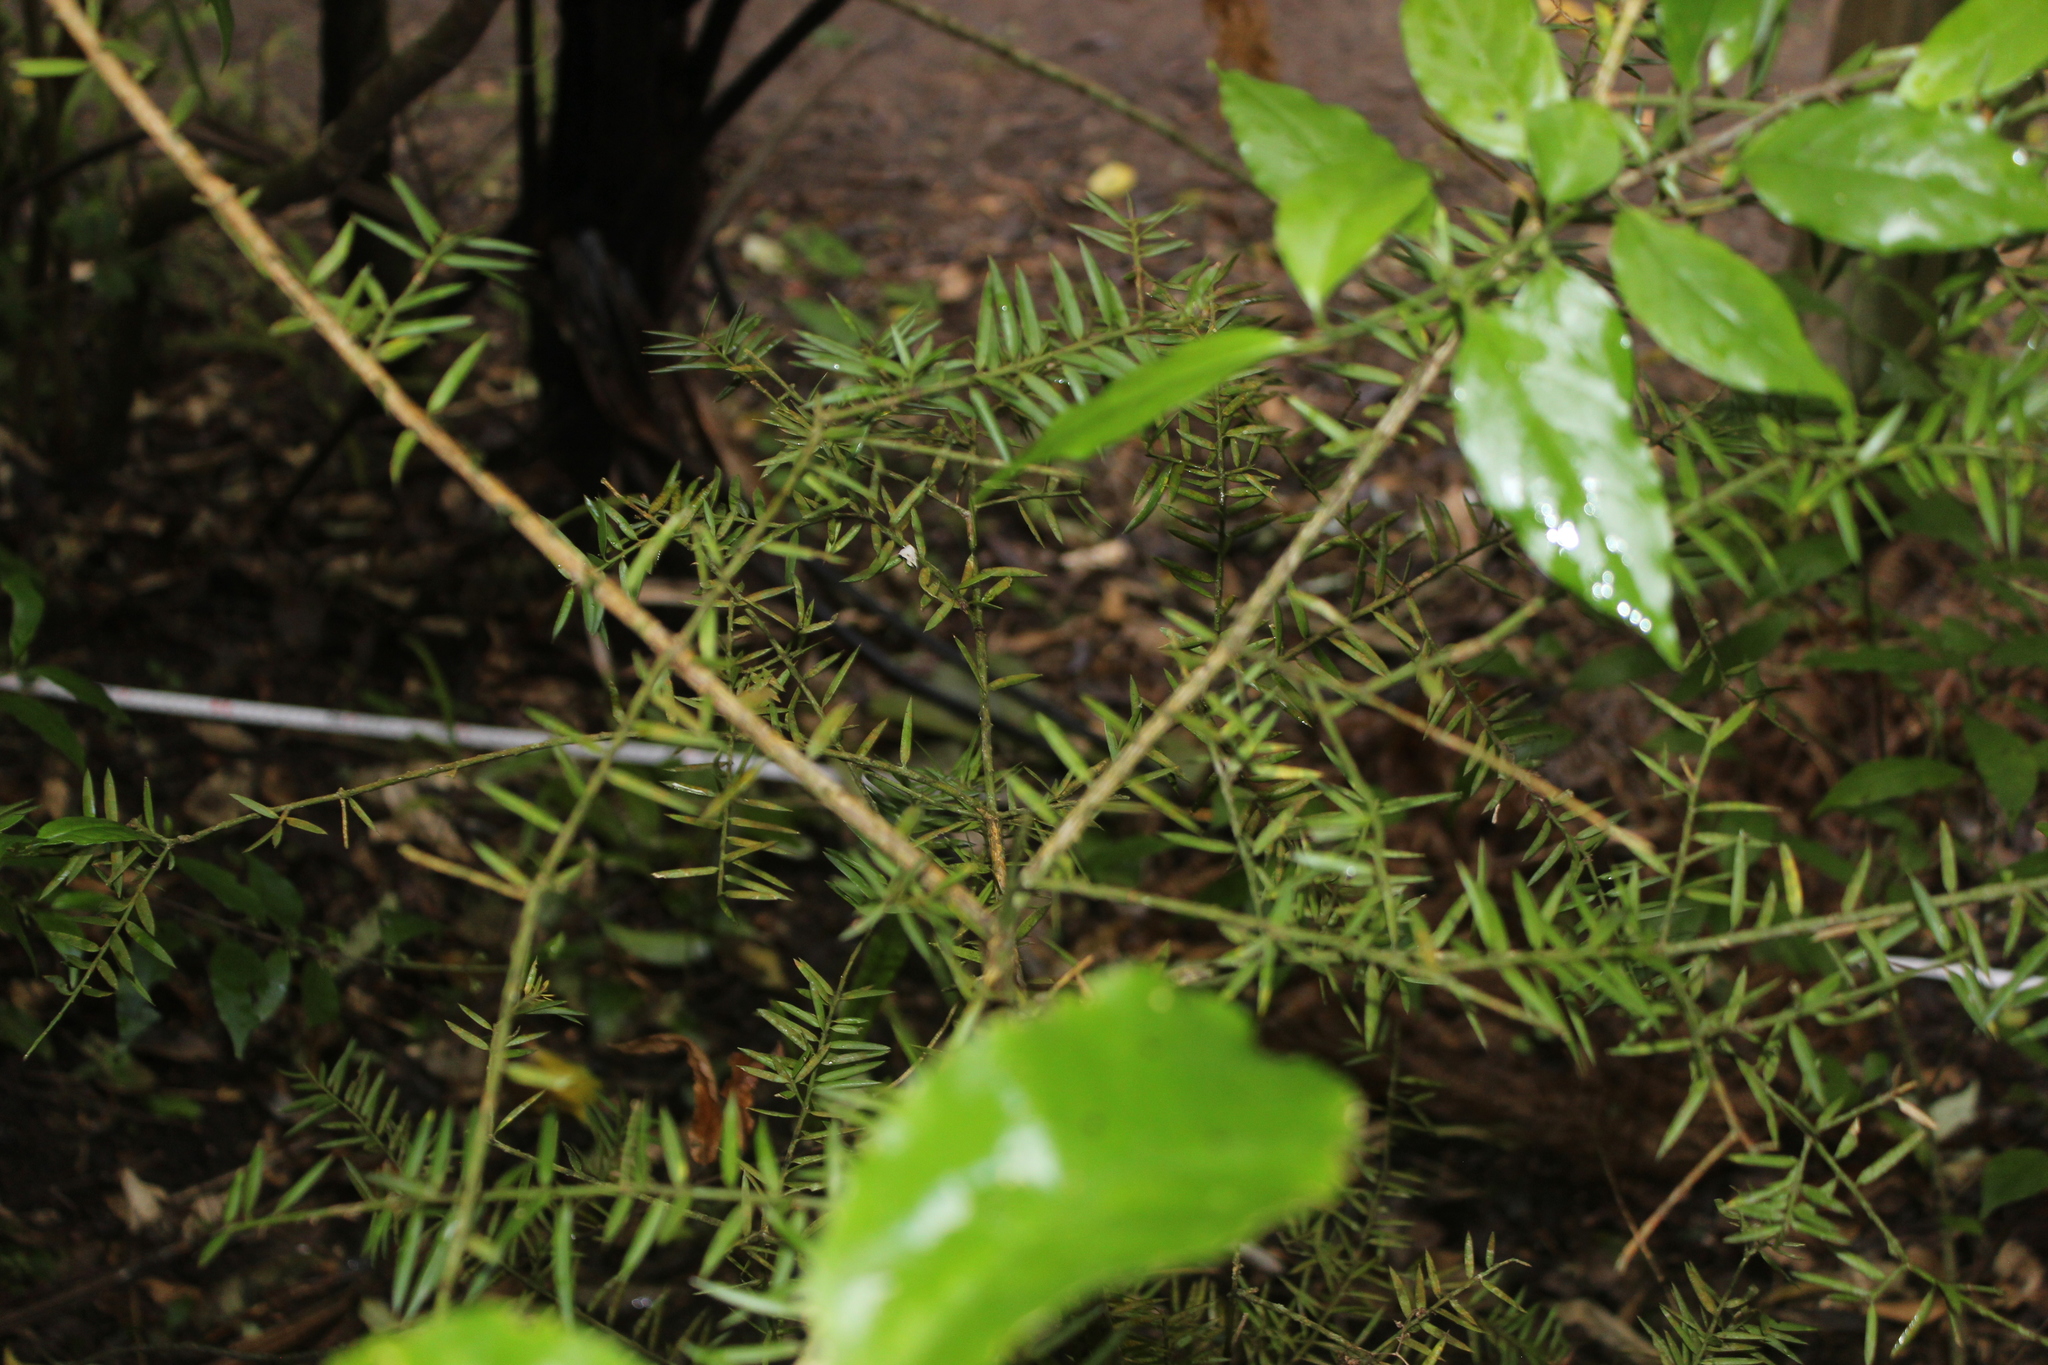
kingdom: Plantae
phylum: Tracheophyta
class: Pinopsida
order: Pinales
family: Podocarpaceae
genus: Podocarpus
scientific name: Podocarpus totara
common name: Totara
